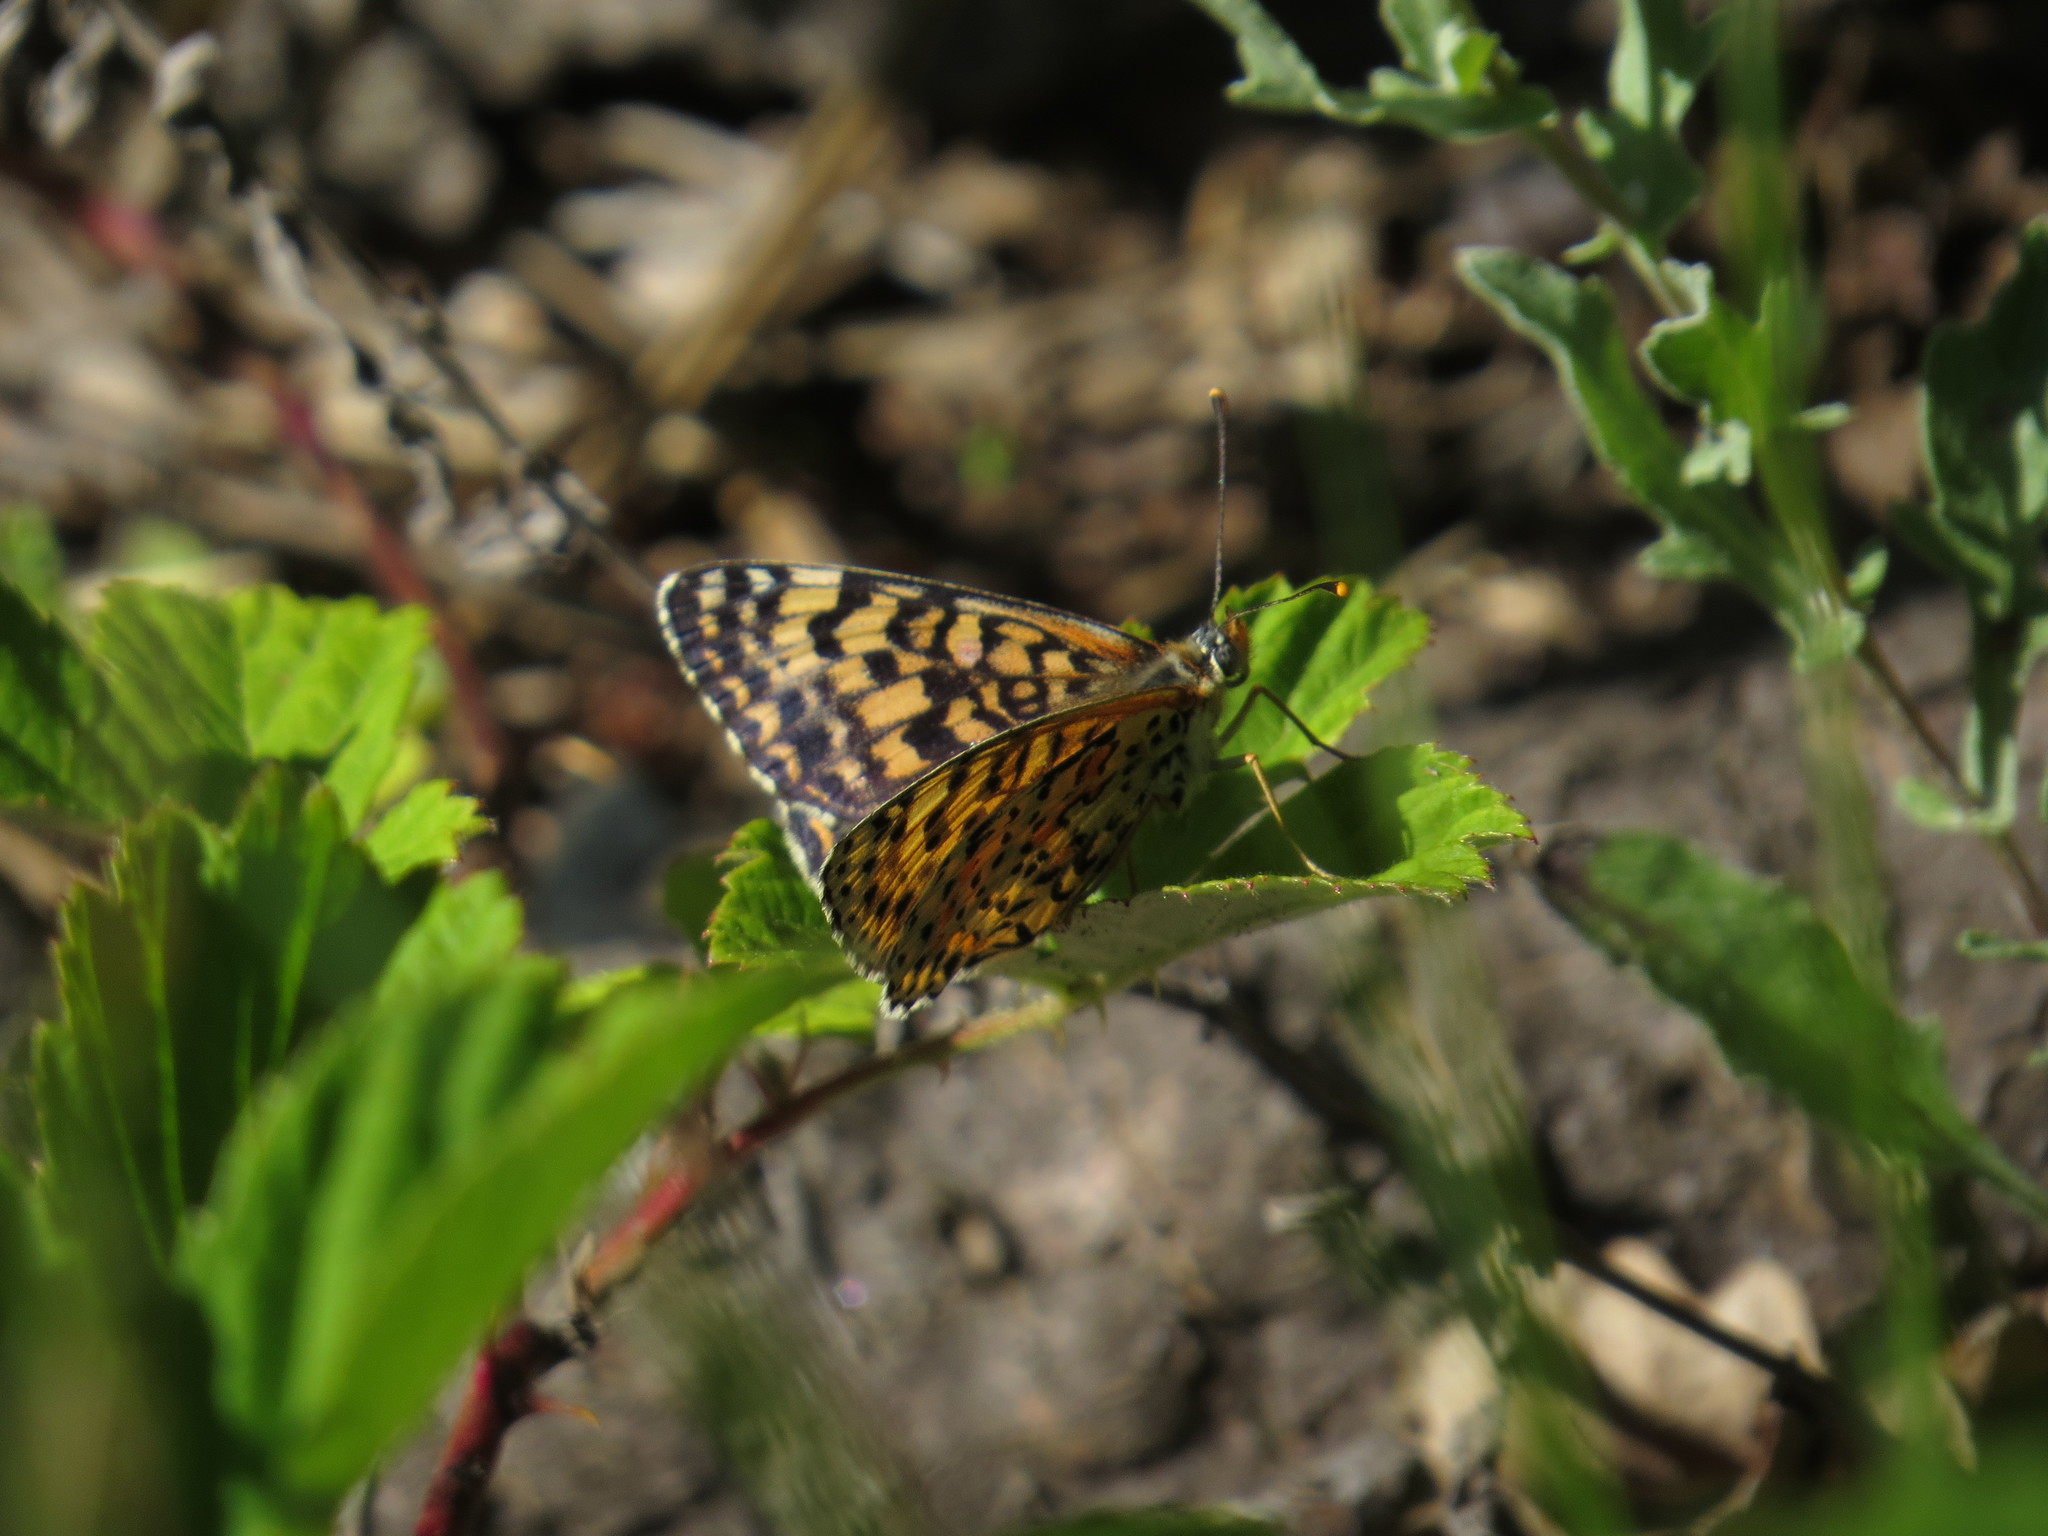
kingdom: Animalia
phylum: Arthropoda
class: Insecta
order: Lepidoptera
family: Nymphalidae
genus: Melitaea
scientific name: Melitaea didyma
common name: Spotted fritillary
